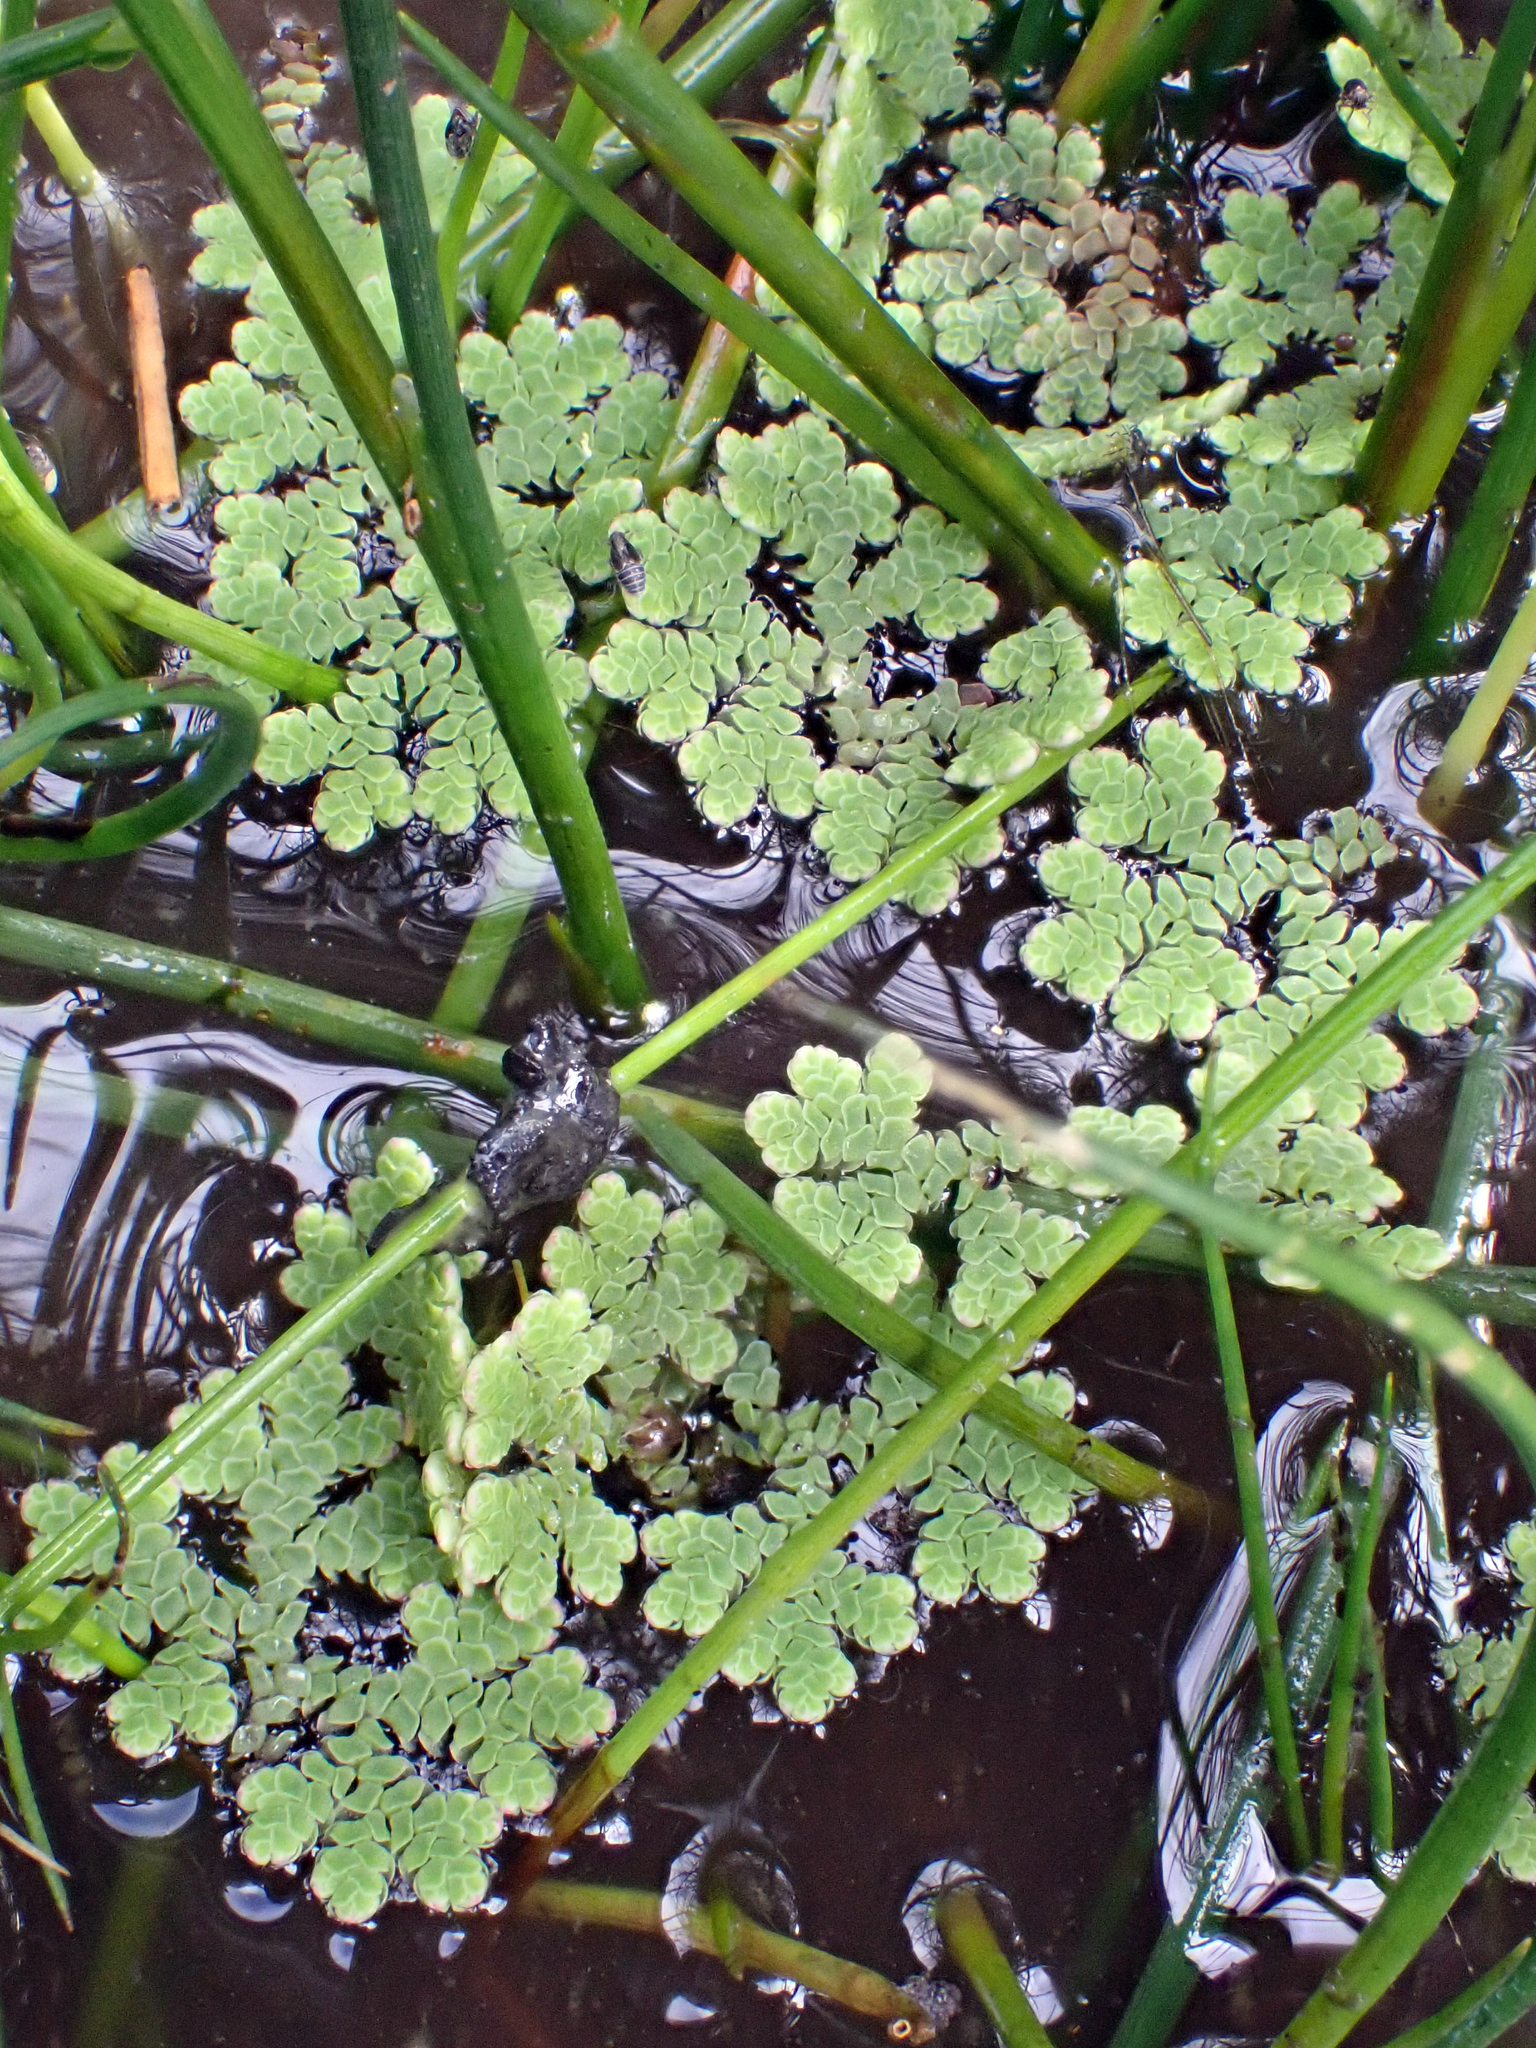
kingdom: Plantae
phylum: Tracheophyta
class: Polypodiopsida
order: Salviniales
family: Salviniaceae
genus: Azolla
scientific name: Azolla rubra
